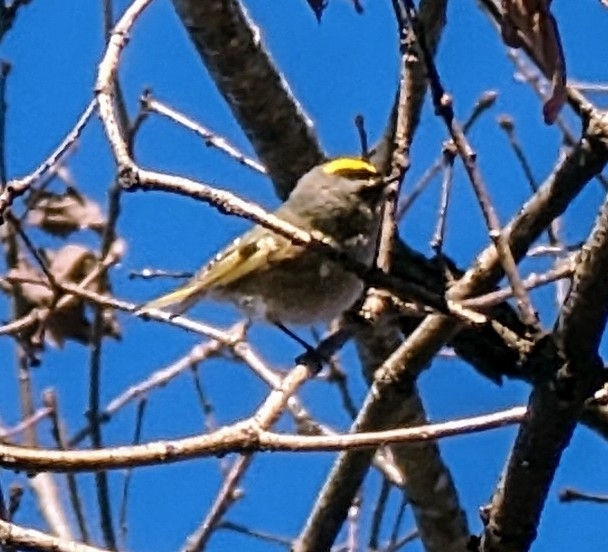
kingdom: Animalia
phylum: Chordata
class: Aves
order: Passeriformes
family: Regulidae
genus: Regulus
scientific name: Regulus satrapa
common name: Golden-crowned kinglet
